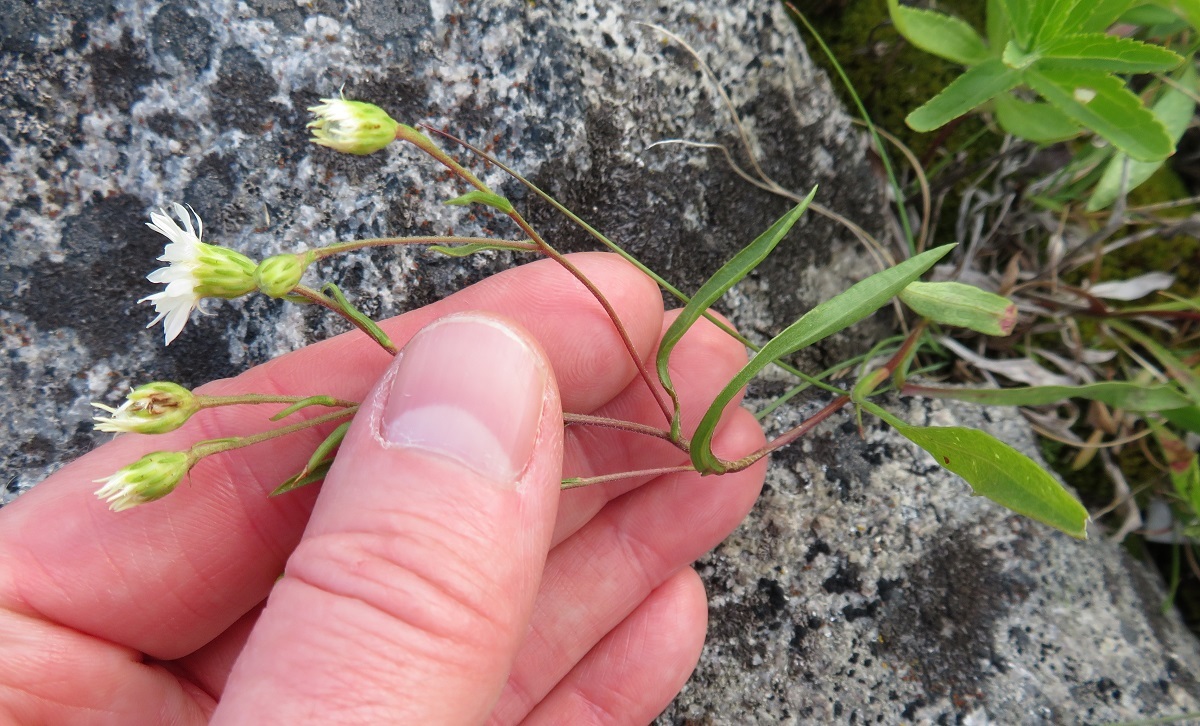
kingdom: Plantae
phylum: Tracheophyta
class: Magnoliopsida
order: Asterales
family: Asteraceae
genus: Solidago
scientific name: Solidago ptarmicoides
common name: White flat-top goldenrod
